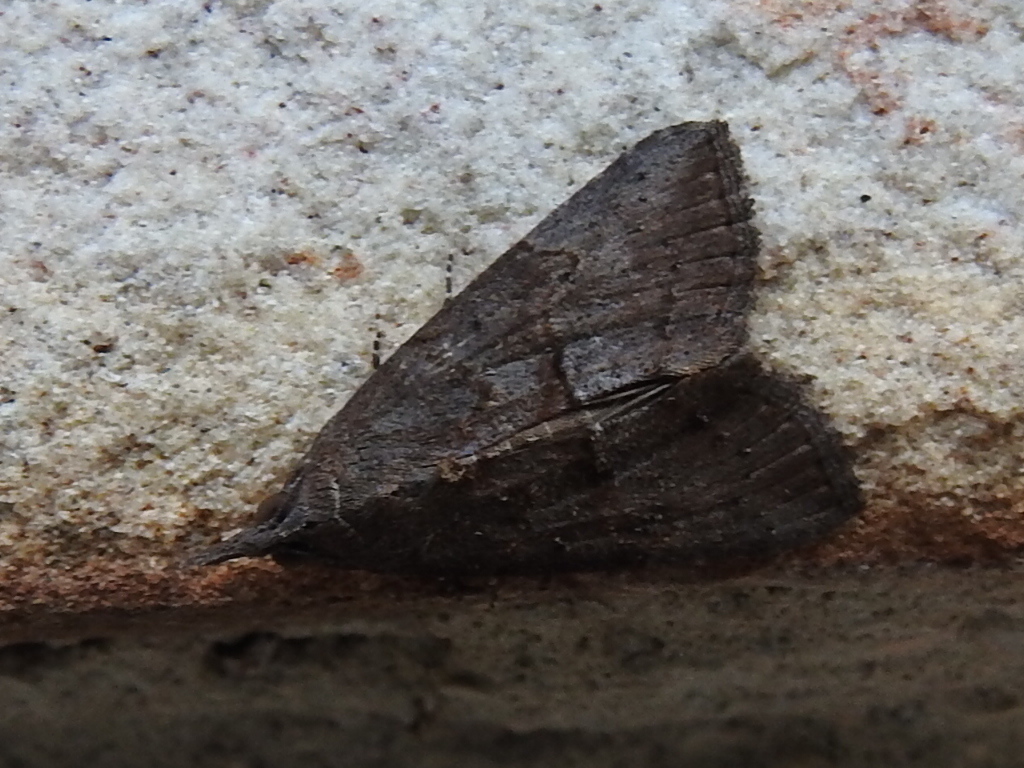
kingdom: Animalia
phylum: Arthropoda
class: Insecta
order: Lepidoptera
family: Erebidae
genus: Hypena
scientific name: Hypena scabra
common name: Green cloverworm
